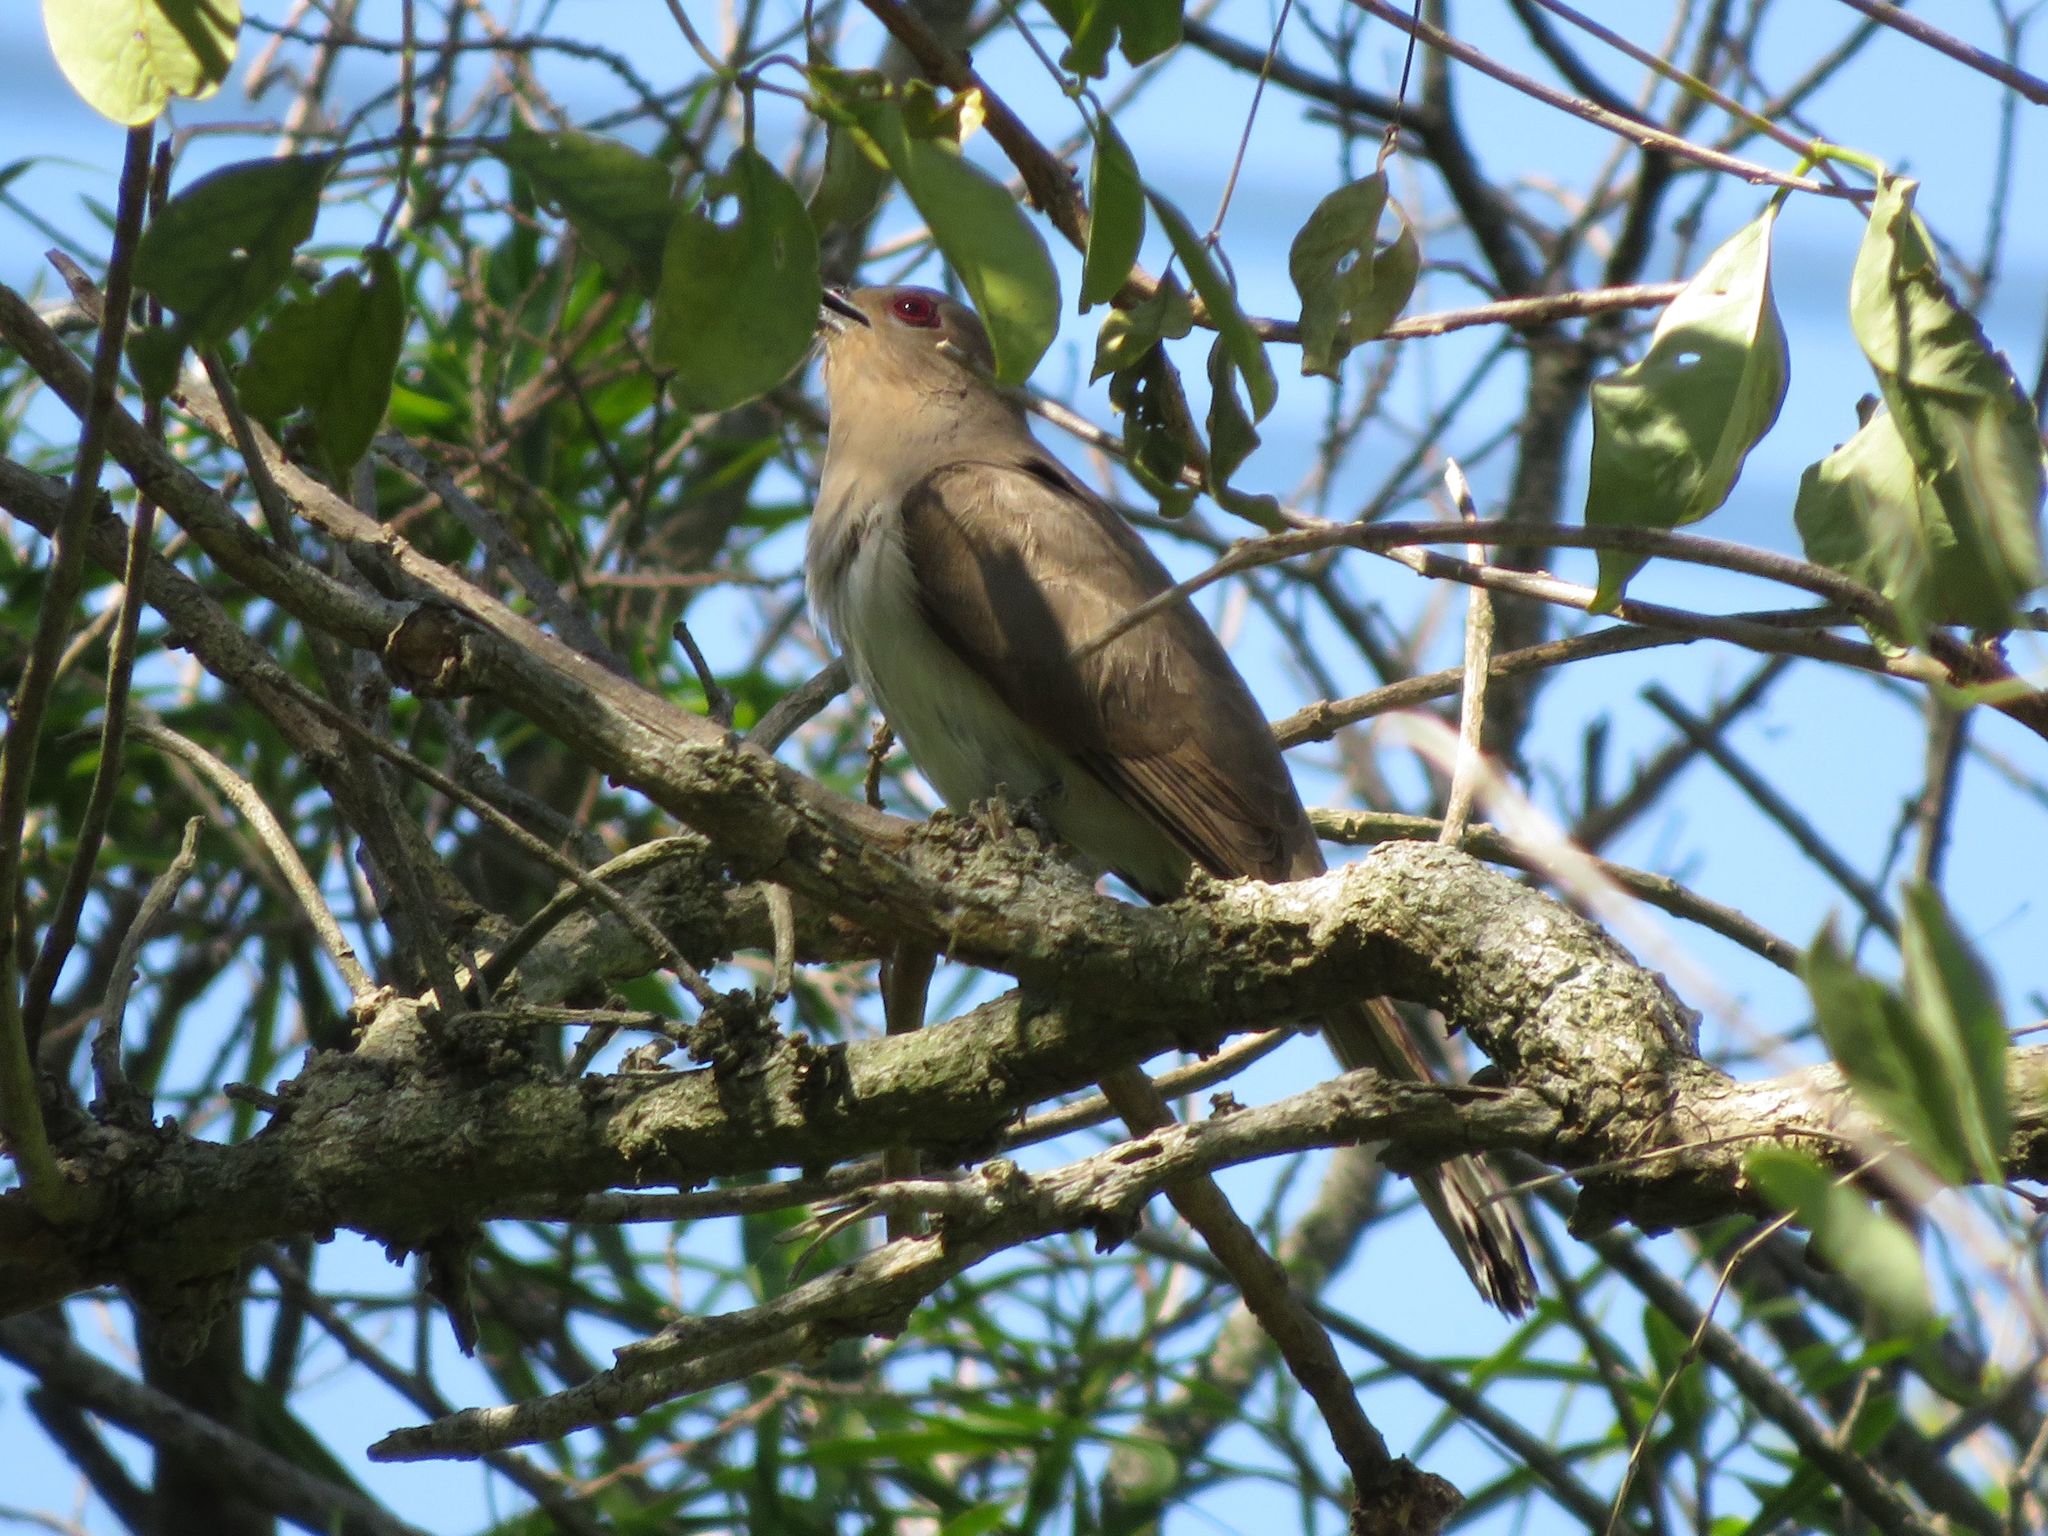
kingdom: Animalia
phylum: Chordata
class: Aves
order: Cuculiformes
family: Cuculidae
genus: Coccyzus
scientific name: Coccyzus cinereus
